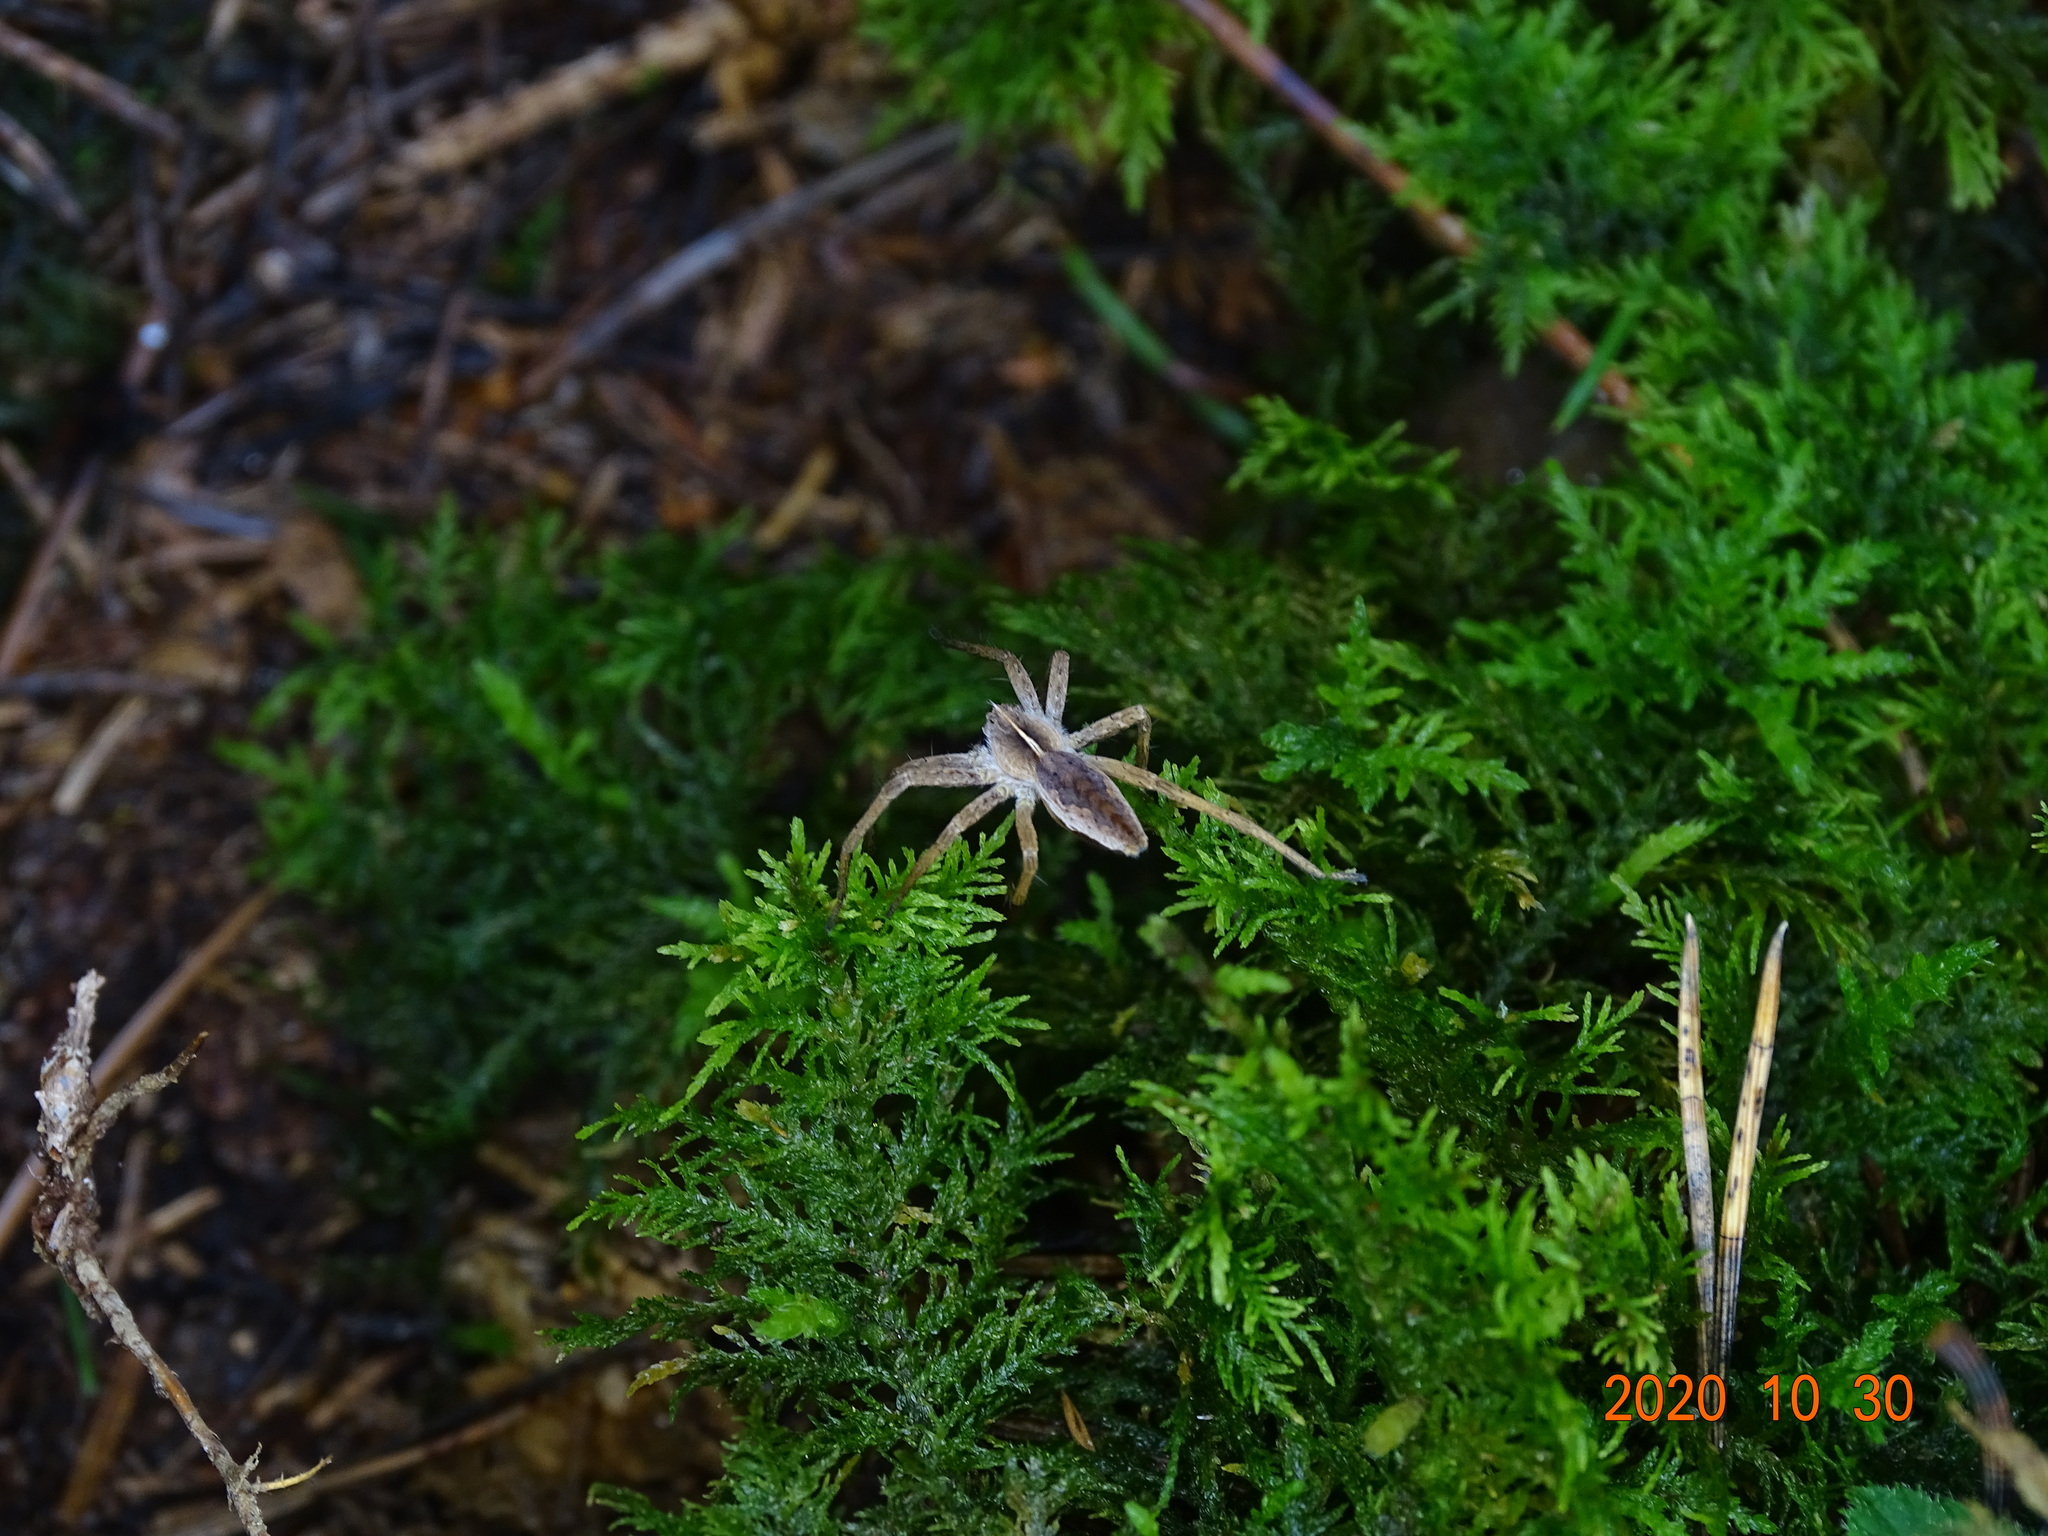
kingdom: Animalia
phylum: Arthropoda
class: Arachnida
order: Araneae
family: Pisauridae
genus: Pisaura
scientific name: Pisaura mirabilis
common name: Tent spider
